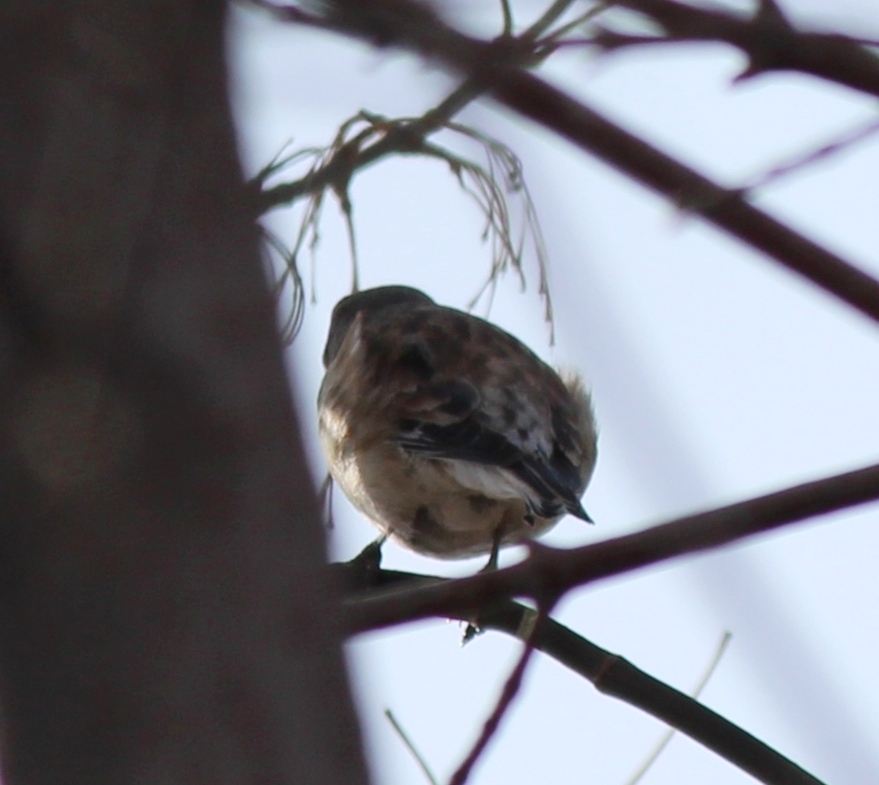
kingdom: Animalia
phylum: Chordata
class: Aves
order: Passeriformes
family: Fringillidae
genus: Linaria
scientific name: Linaria cannabina
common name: Common linnet
